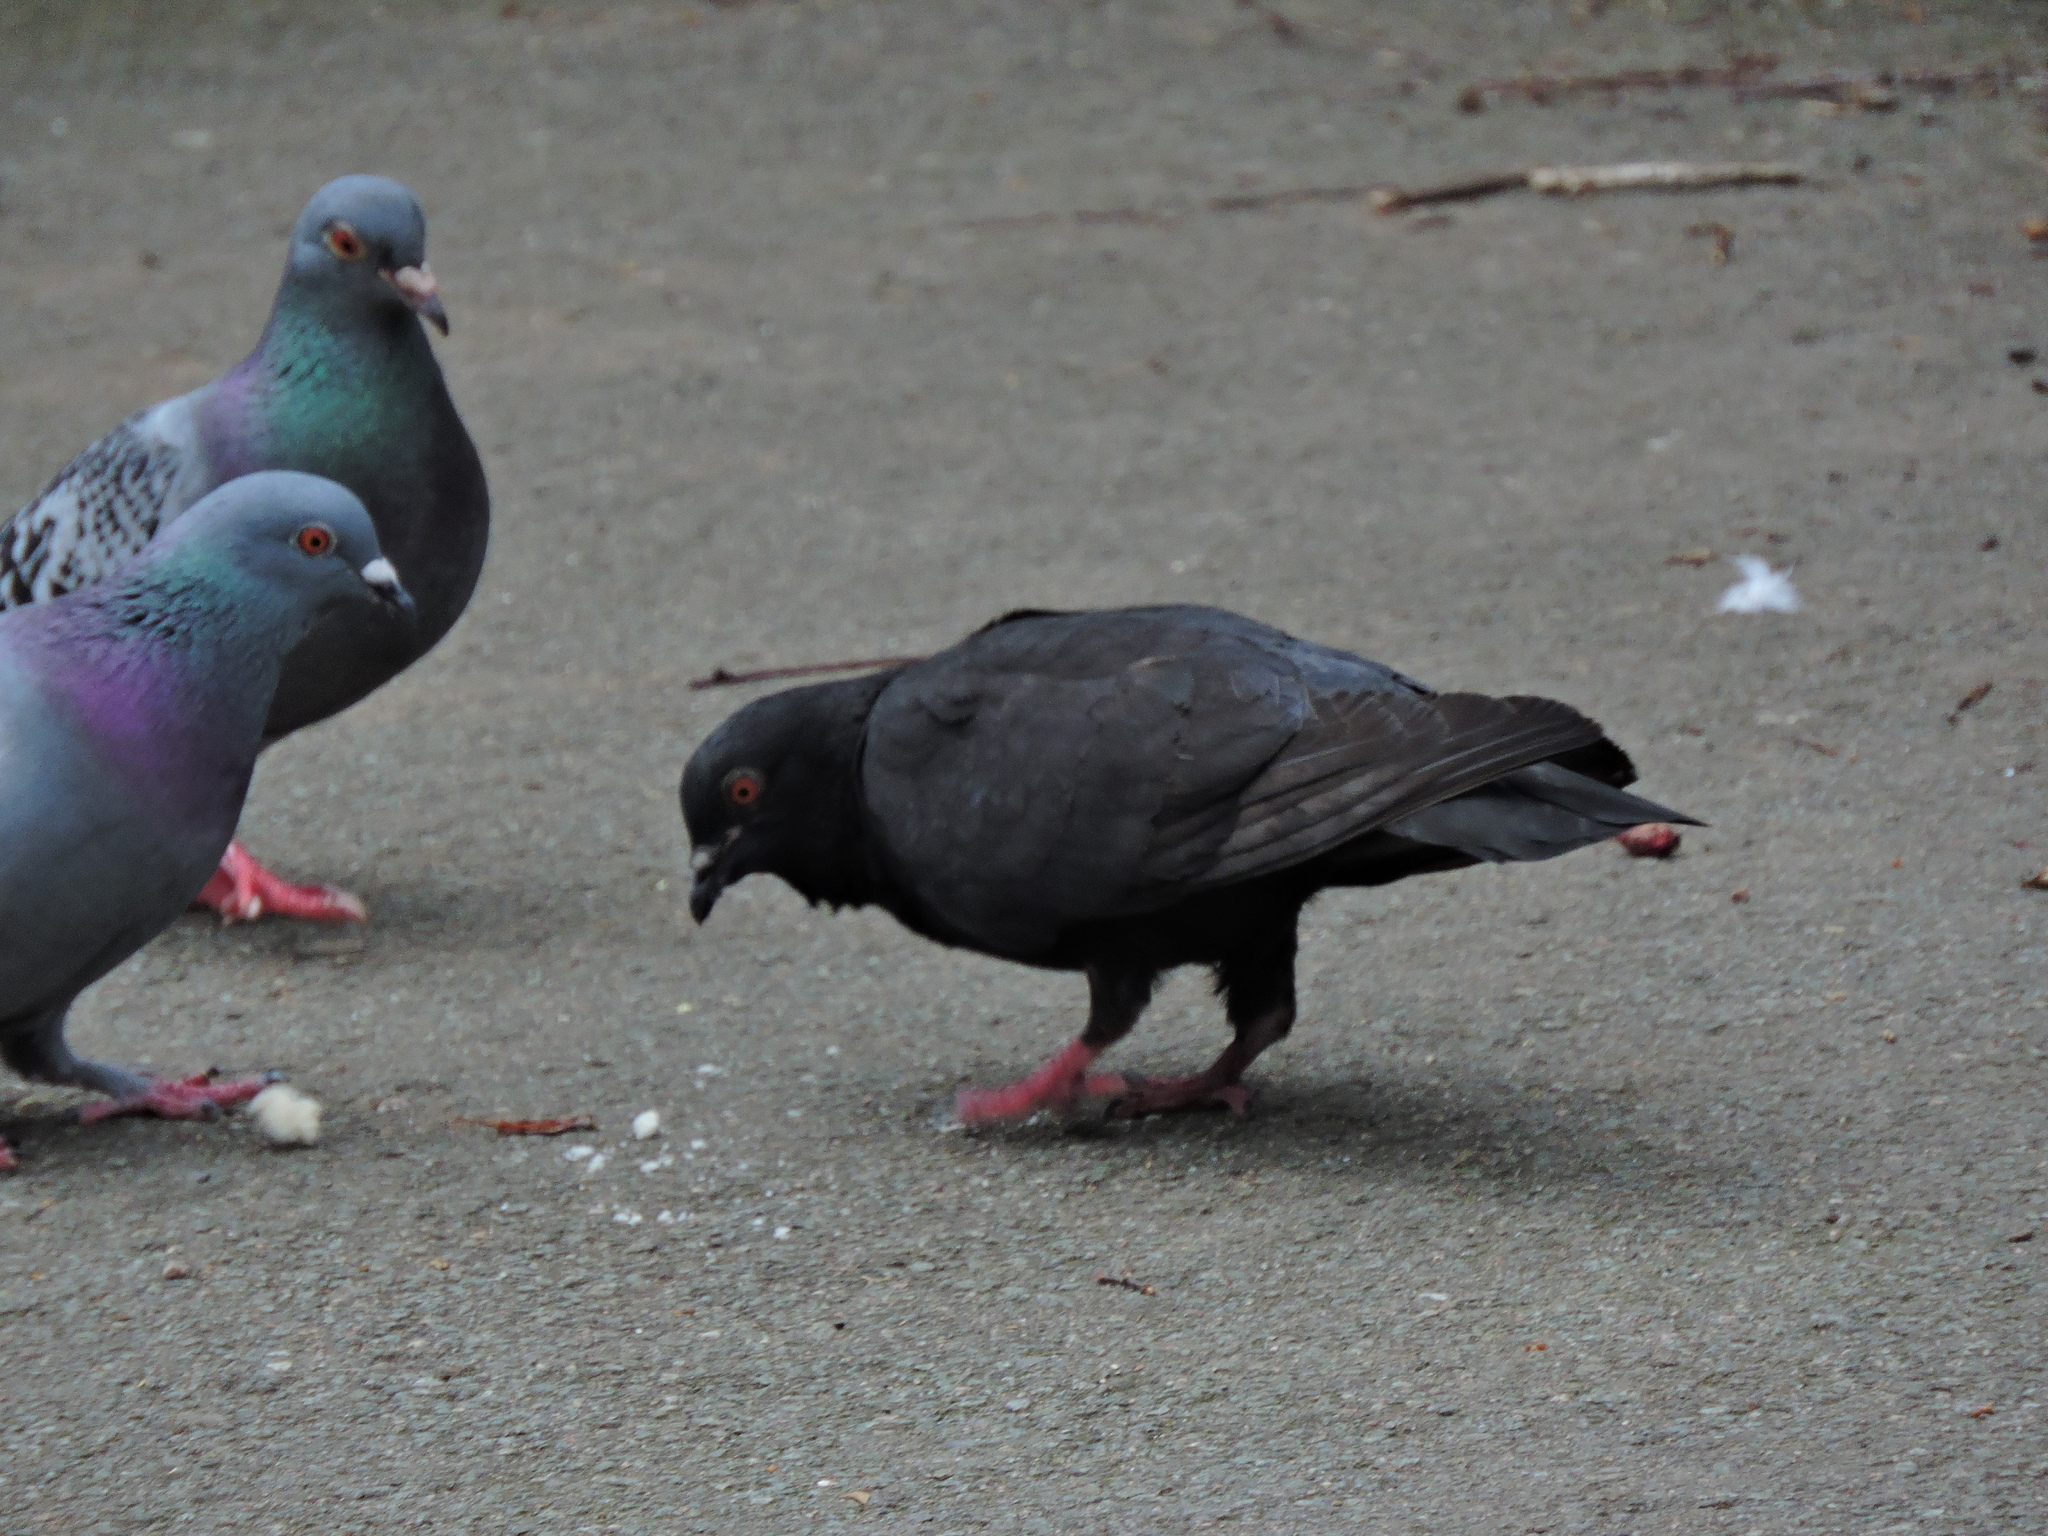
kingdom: Animalia
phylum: Chordata
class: Aves
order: Columbiformes
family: Columbidae
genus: Columba
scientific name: Columba livia
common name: Rock pigeon
